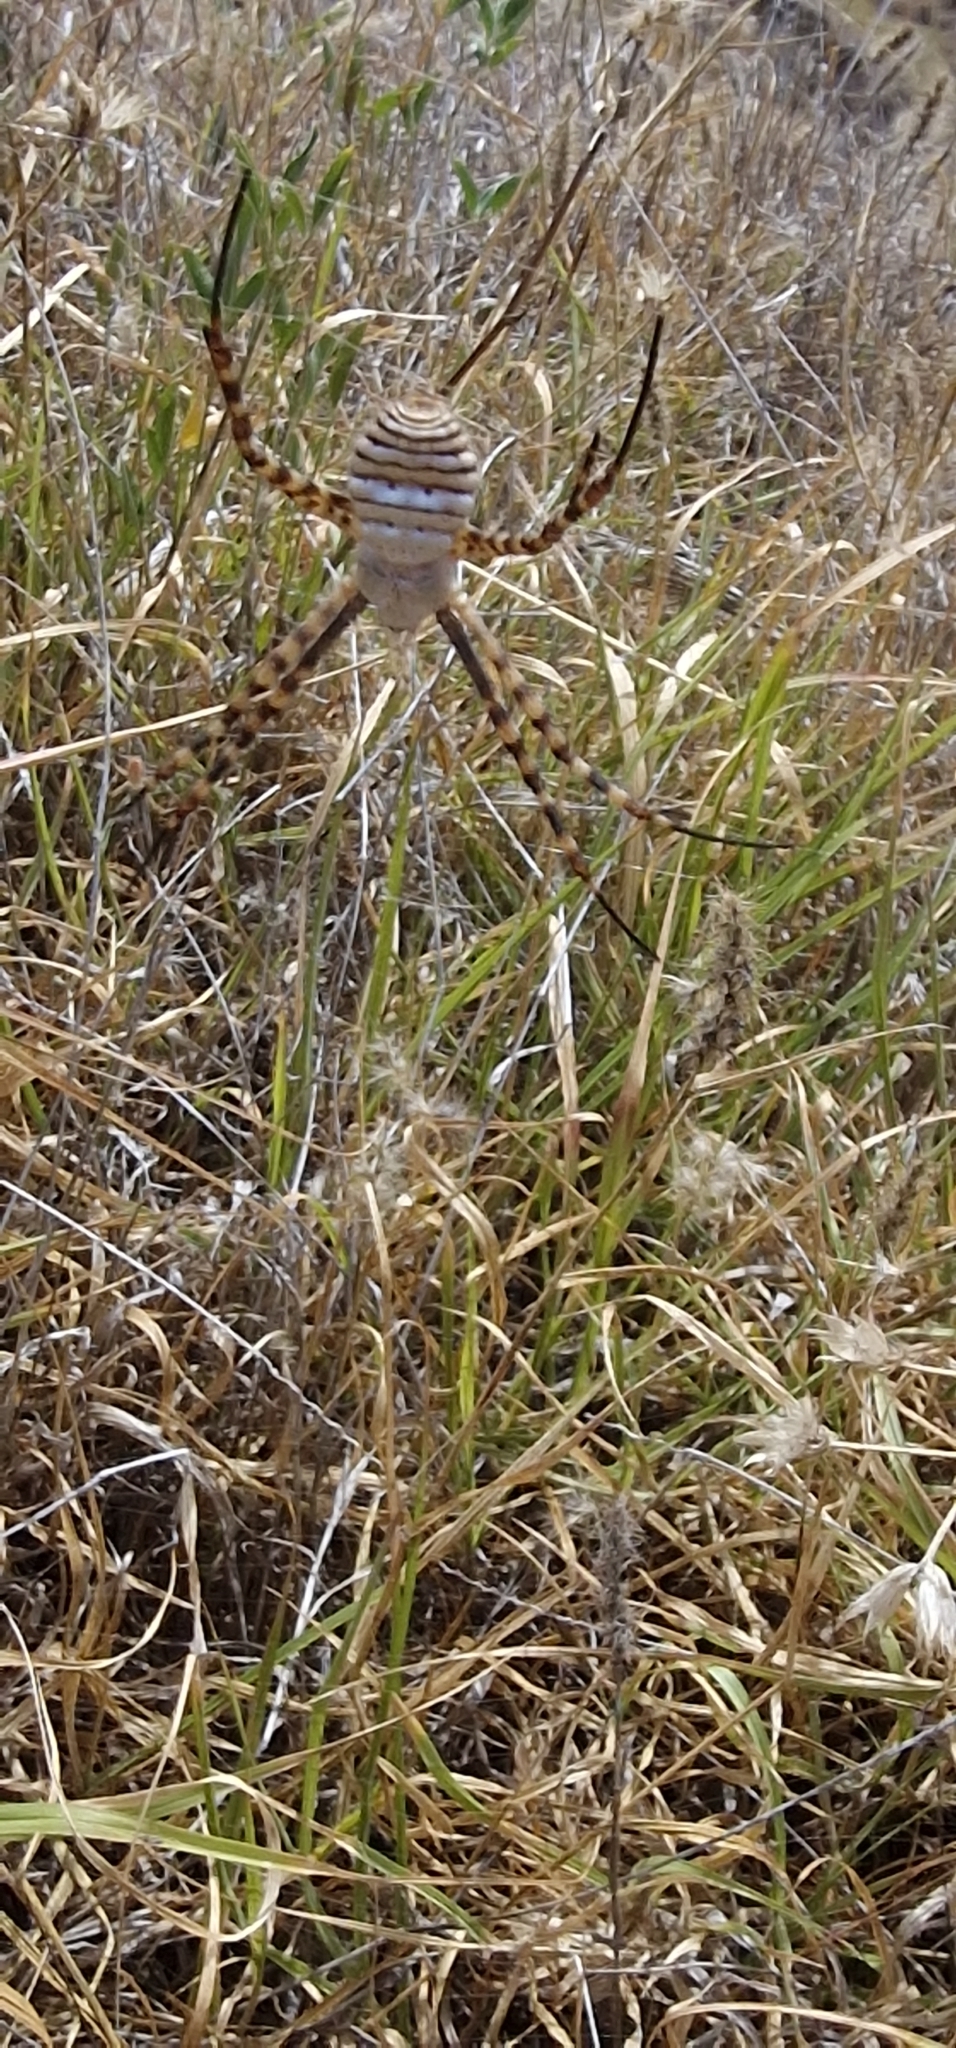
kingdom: Animalia
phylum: Arthropoda
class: Arachnida
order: Araneae
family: Araneidae
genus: Argiope
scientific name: Argiope trifasciata
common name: Banded garden spider
